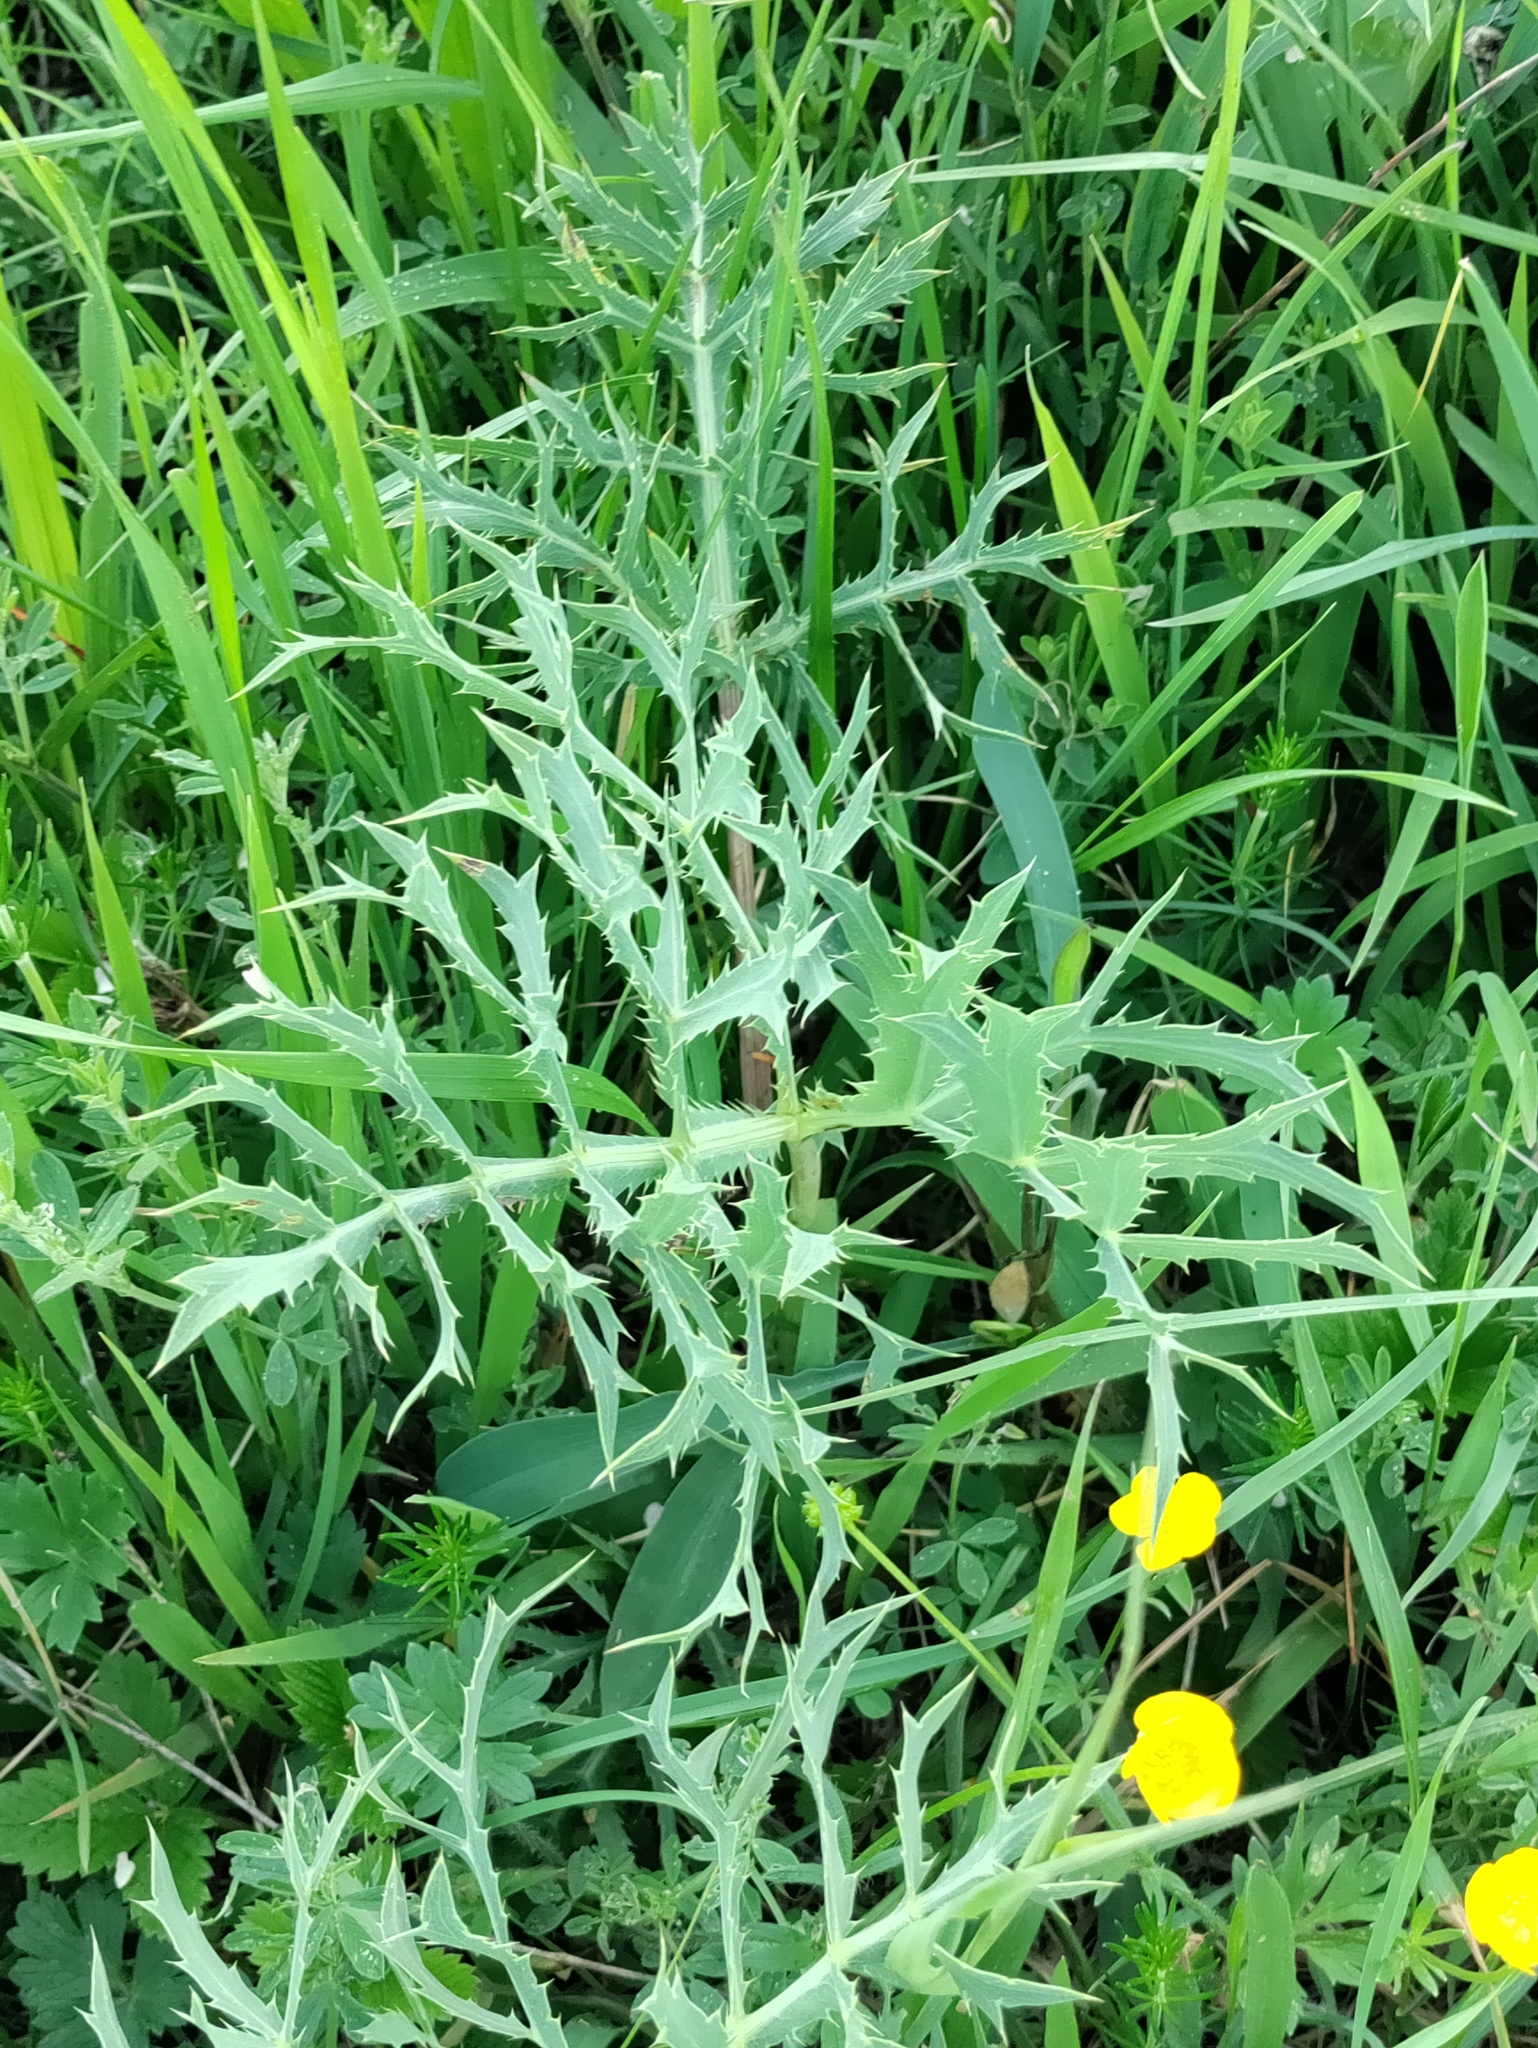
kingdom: Plantae
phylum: Tracheophyta
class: Magnoliopsida
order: Apiales
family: Apiaceae
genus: Eryngium
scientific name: Eryngium campestre
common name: Field eryngo
